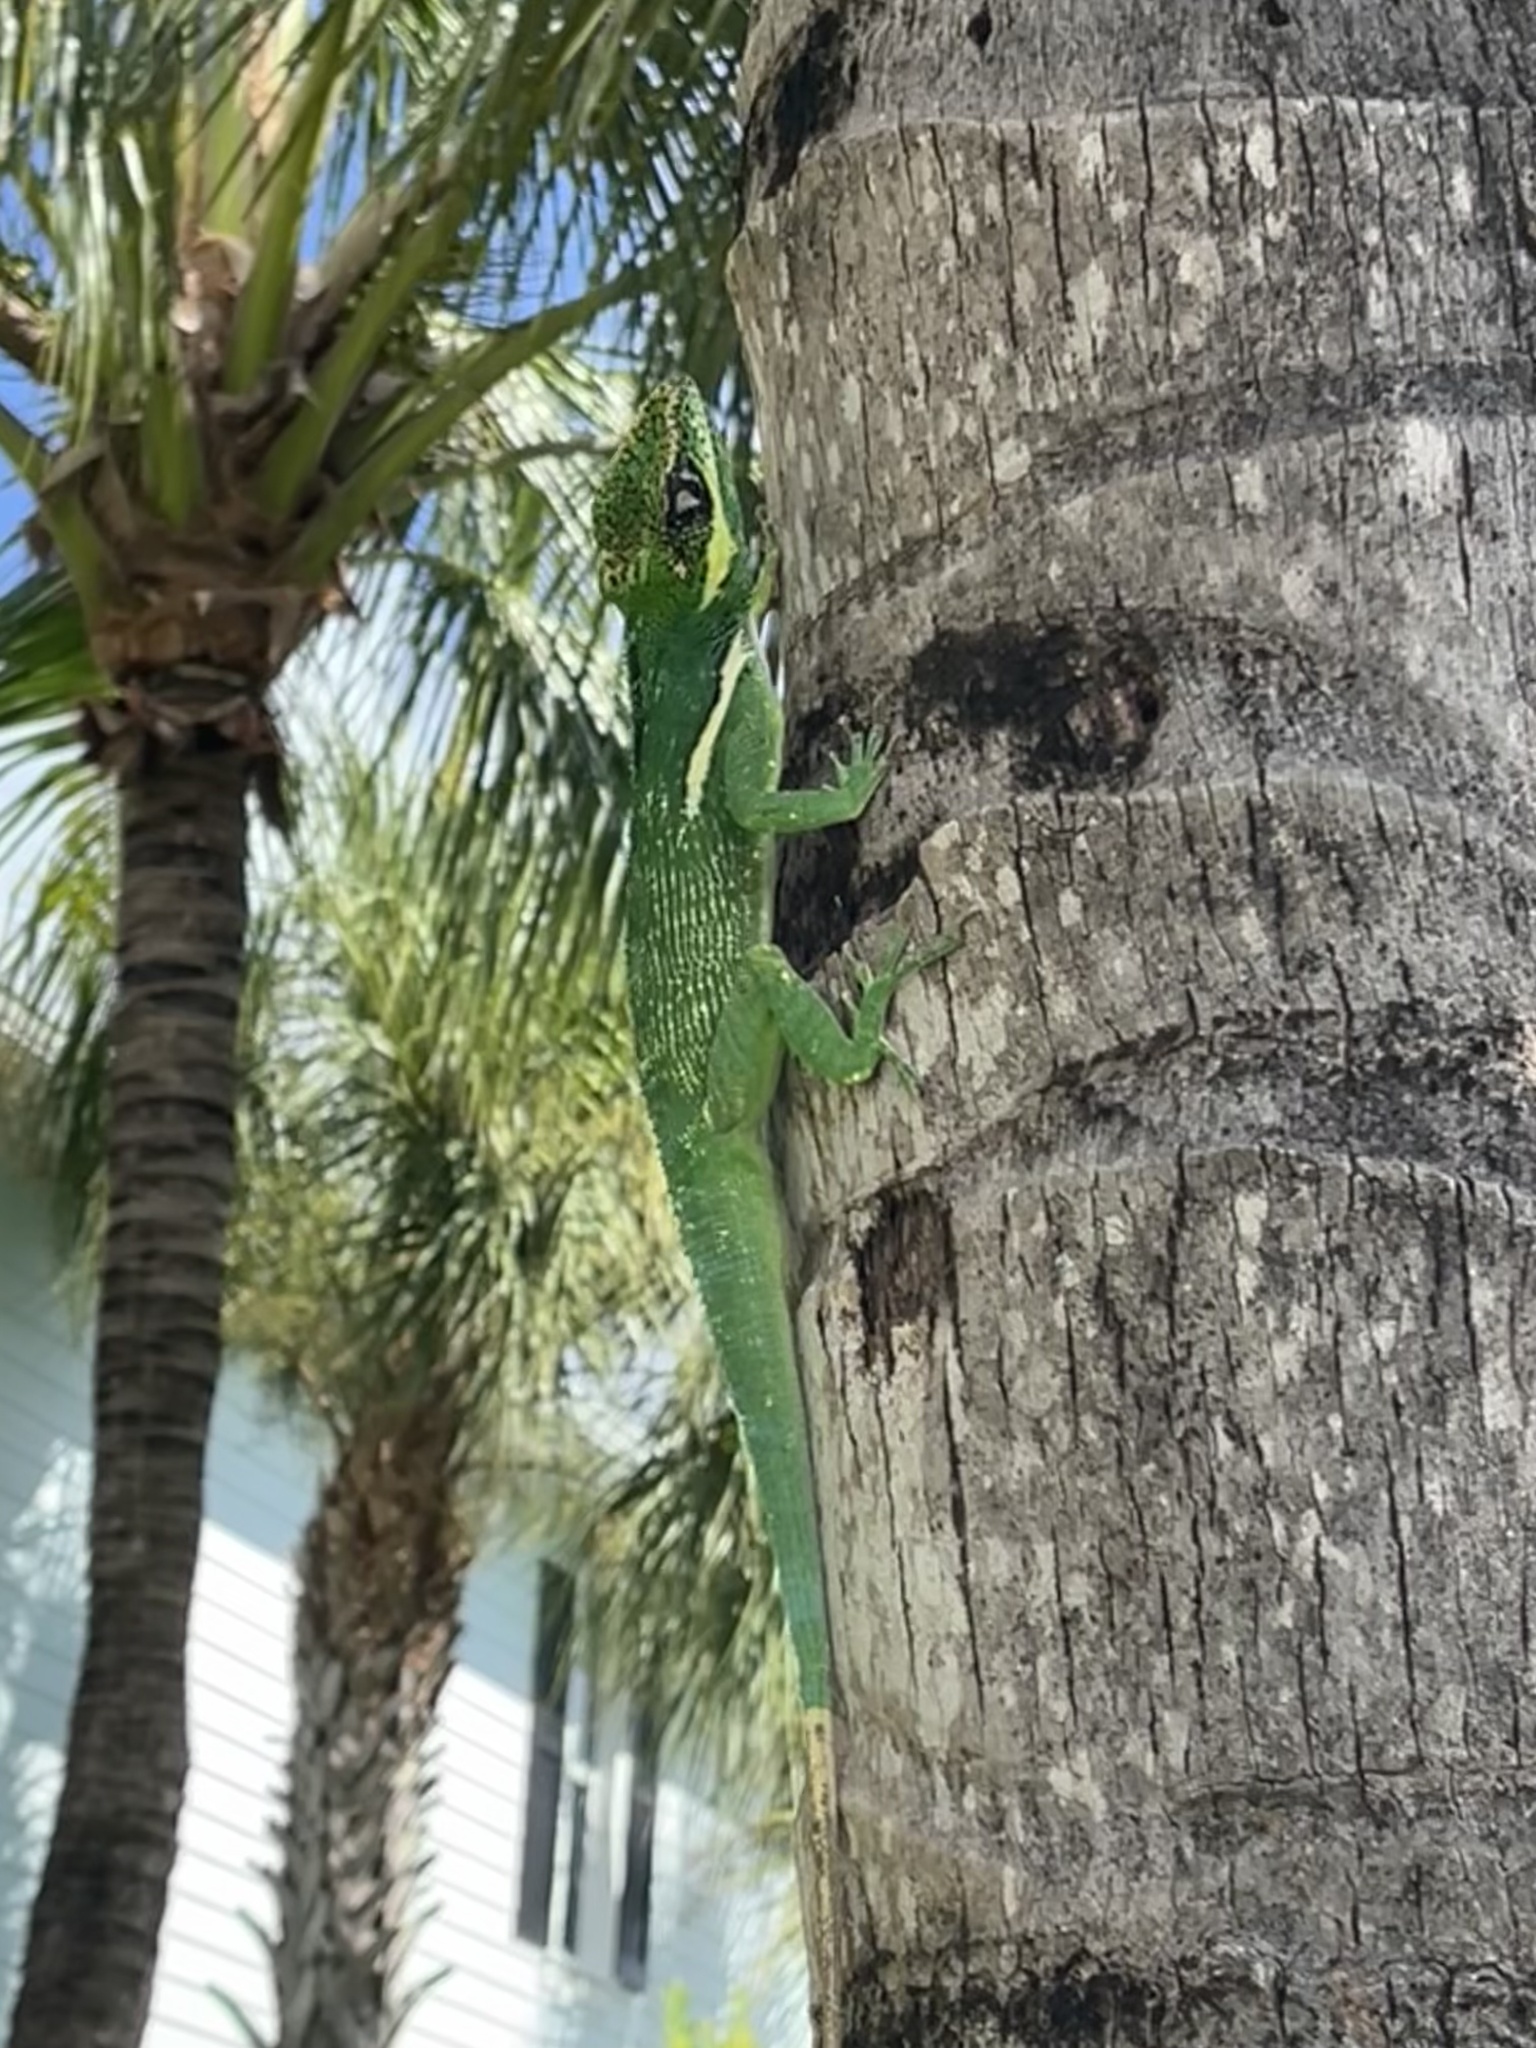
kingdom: Animalia
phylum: Chordata
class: Squamata
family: Dactyloidae
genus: Anolis
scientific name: Anolis equestris
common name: Knight anole
